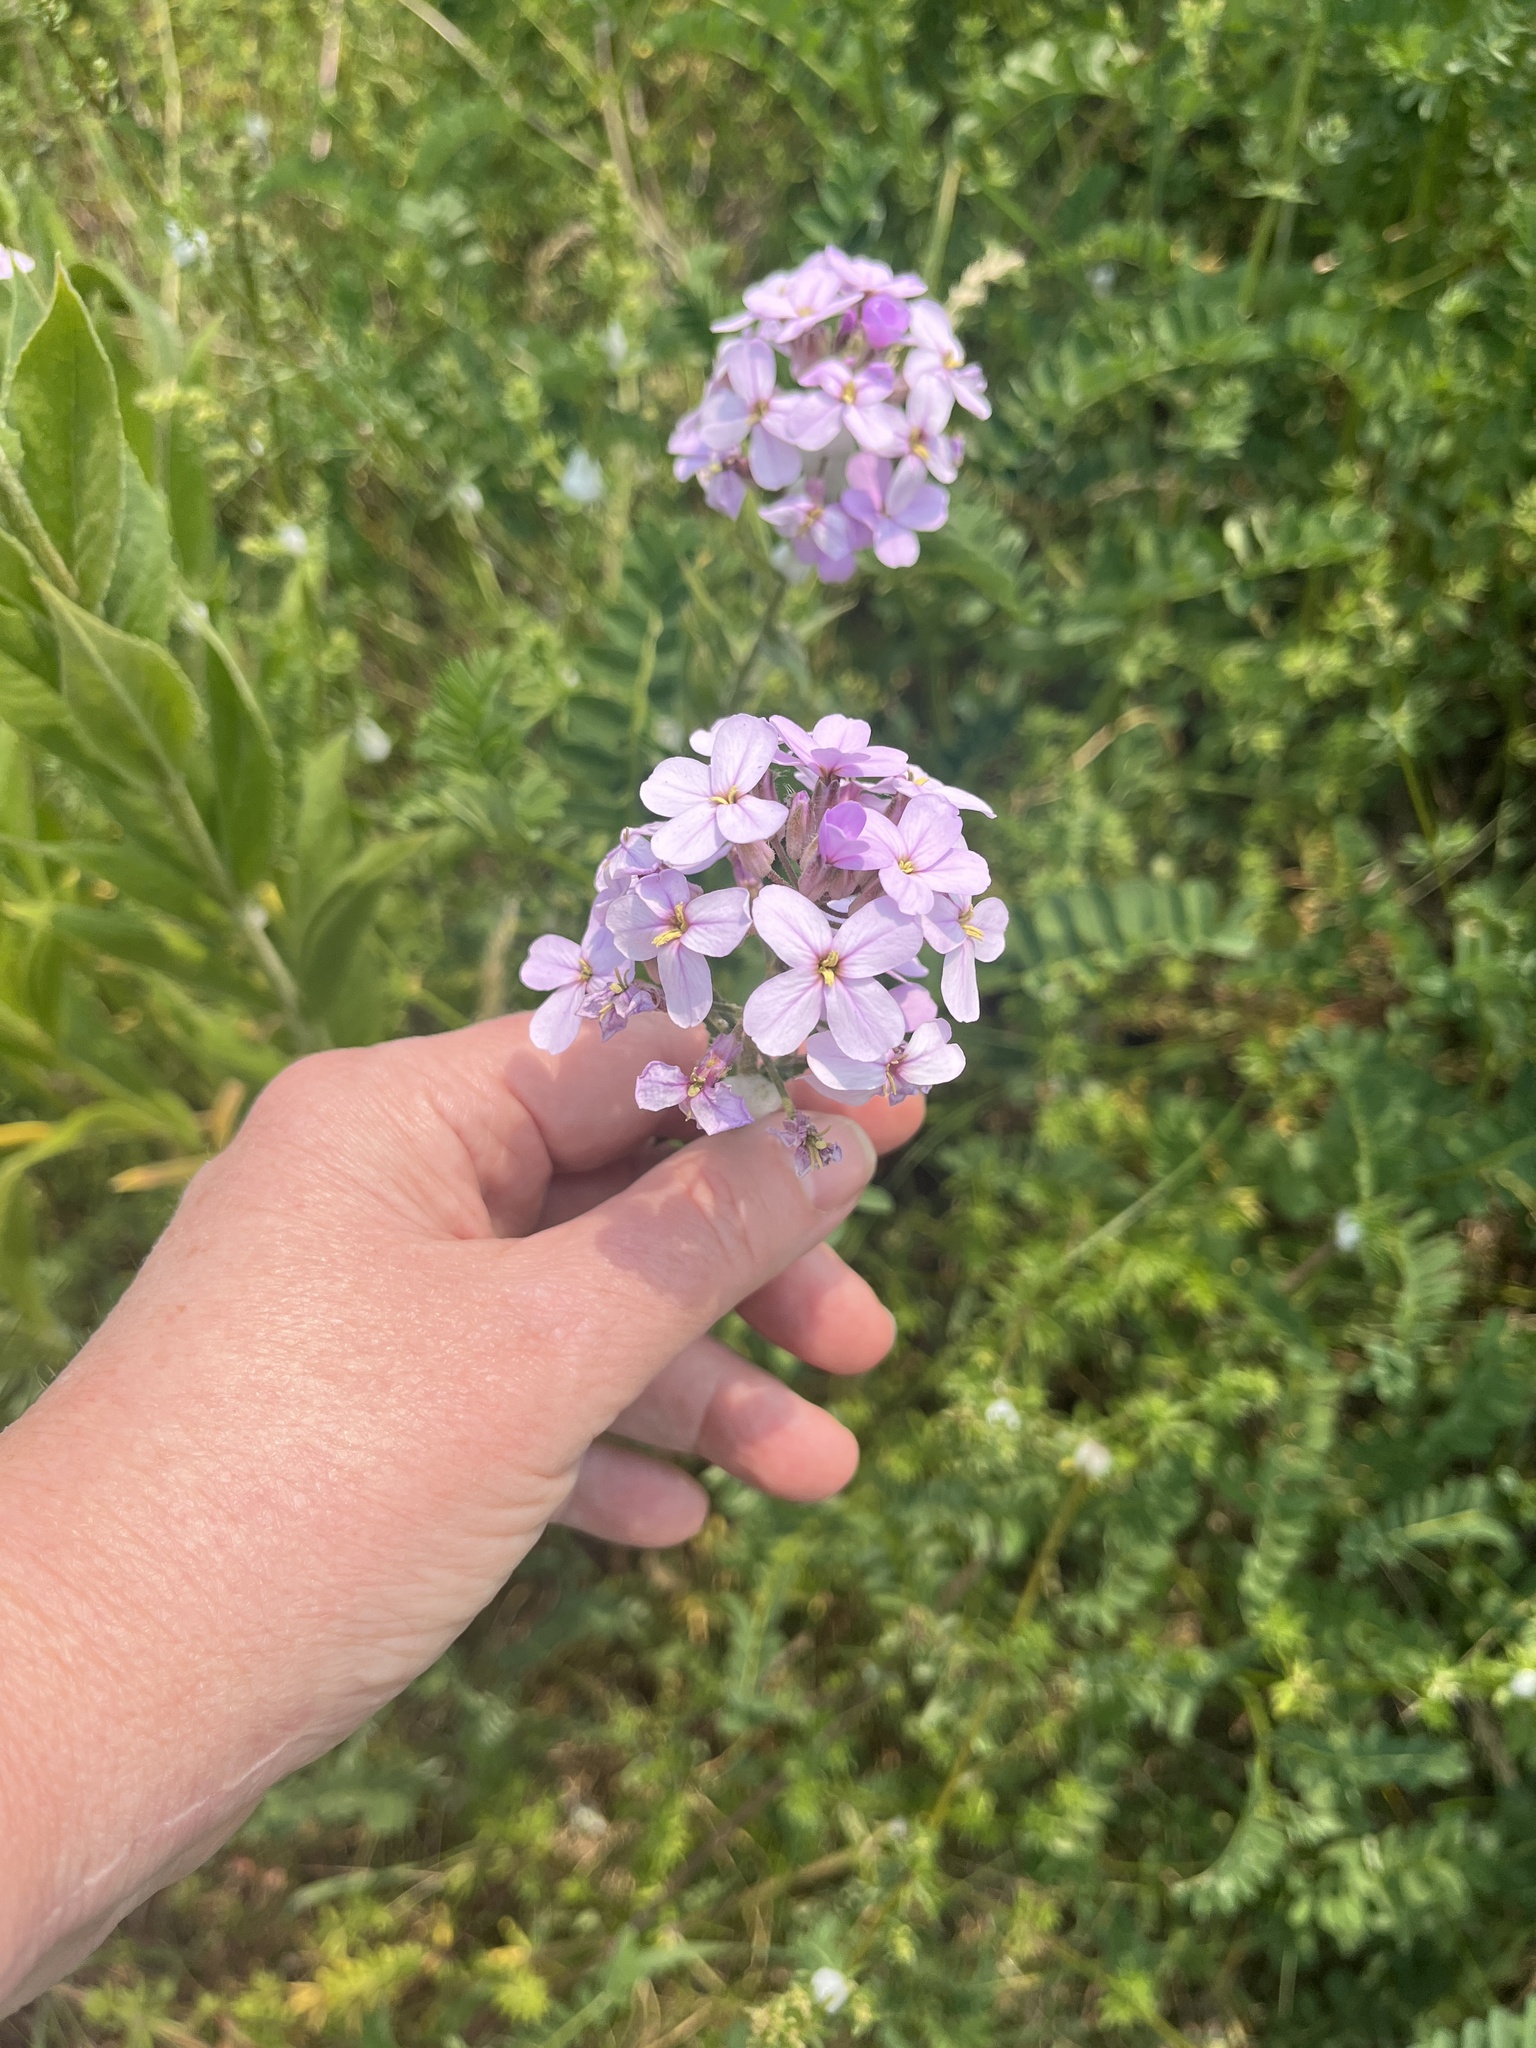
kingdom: Plantae
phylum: Tracheophyta
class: Magnoliopsida
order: Brassicales
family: Brassicaceae
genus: Hesperis
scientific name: Hesperis matronalis
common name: Dame's-violet
